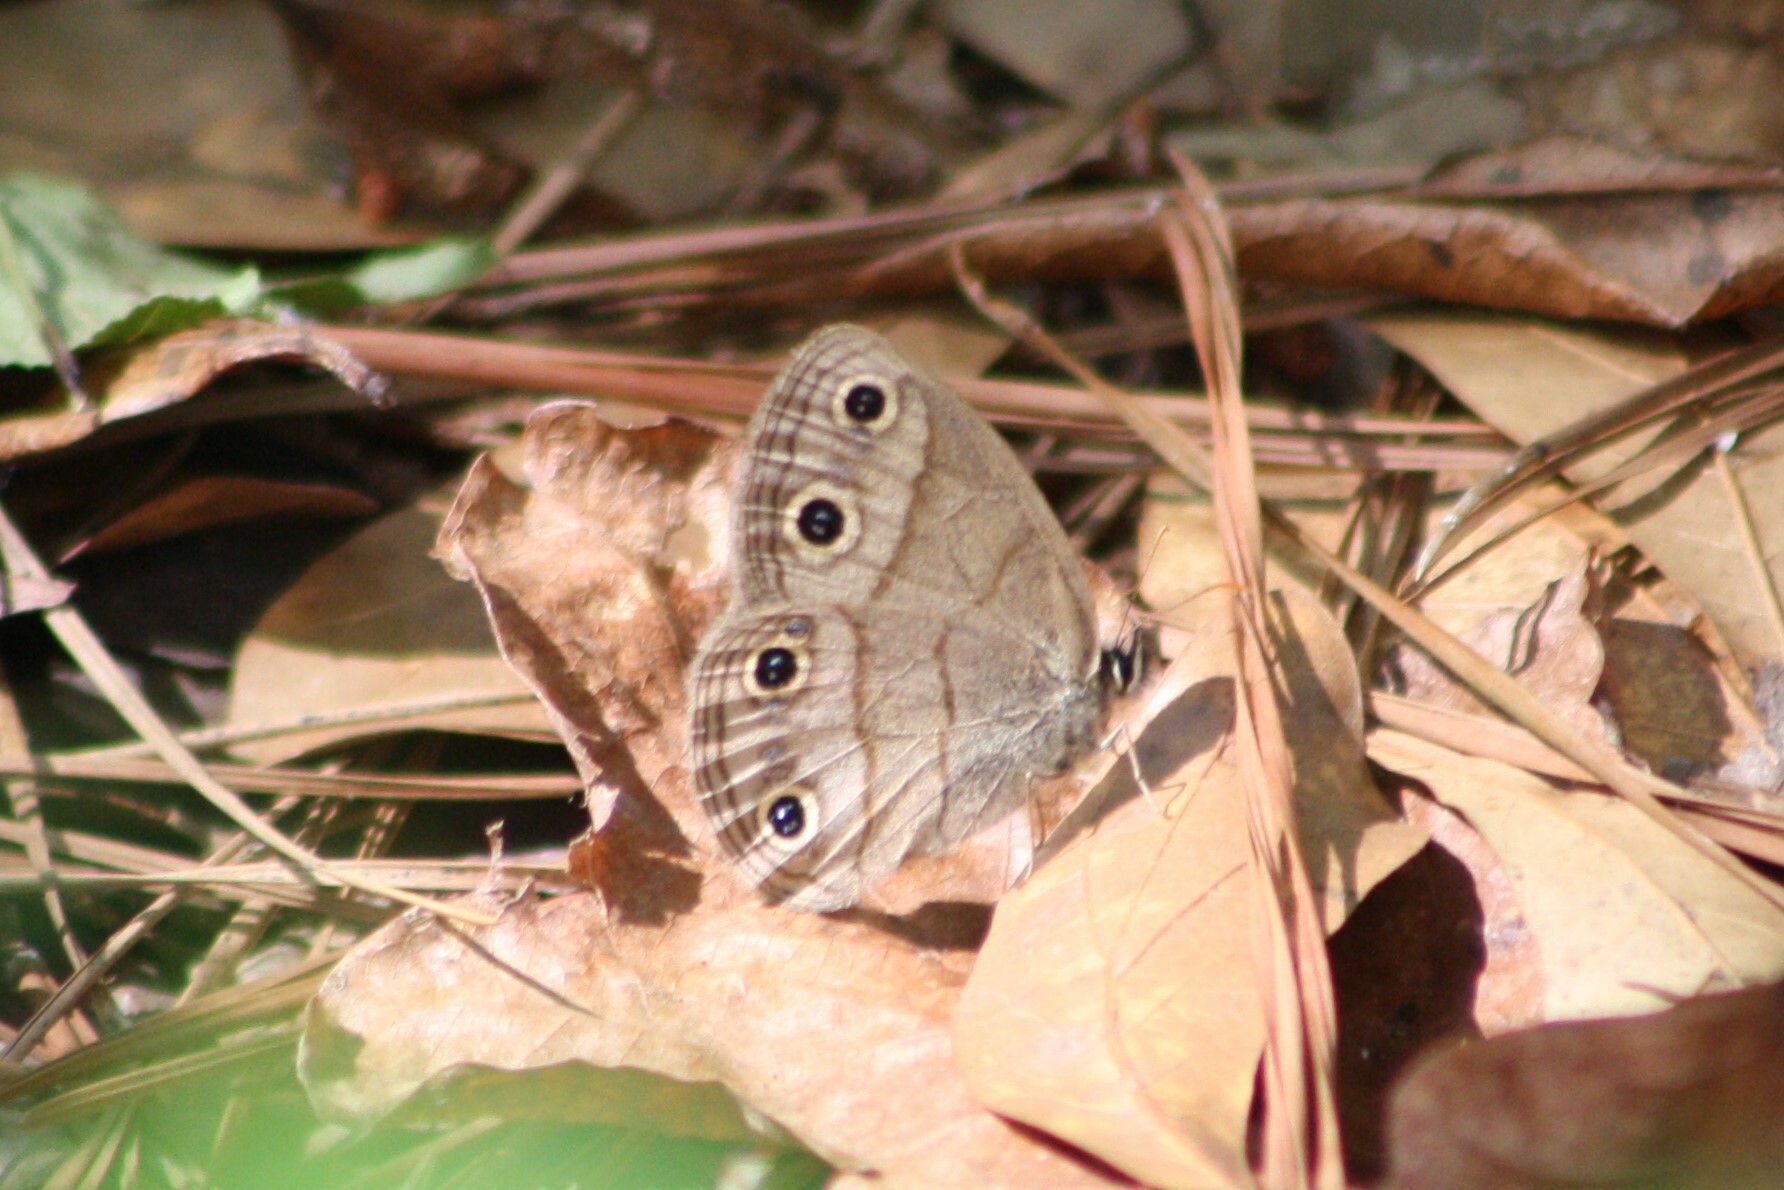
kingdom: Animalia
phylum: Arthropoda
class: Insecta
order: Lepidoptera
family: Nymphalidae
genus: Euptychia
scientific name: Euptychia cymela
